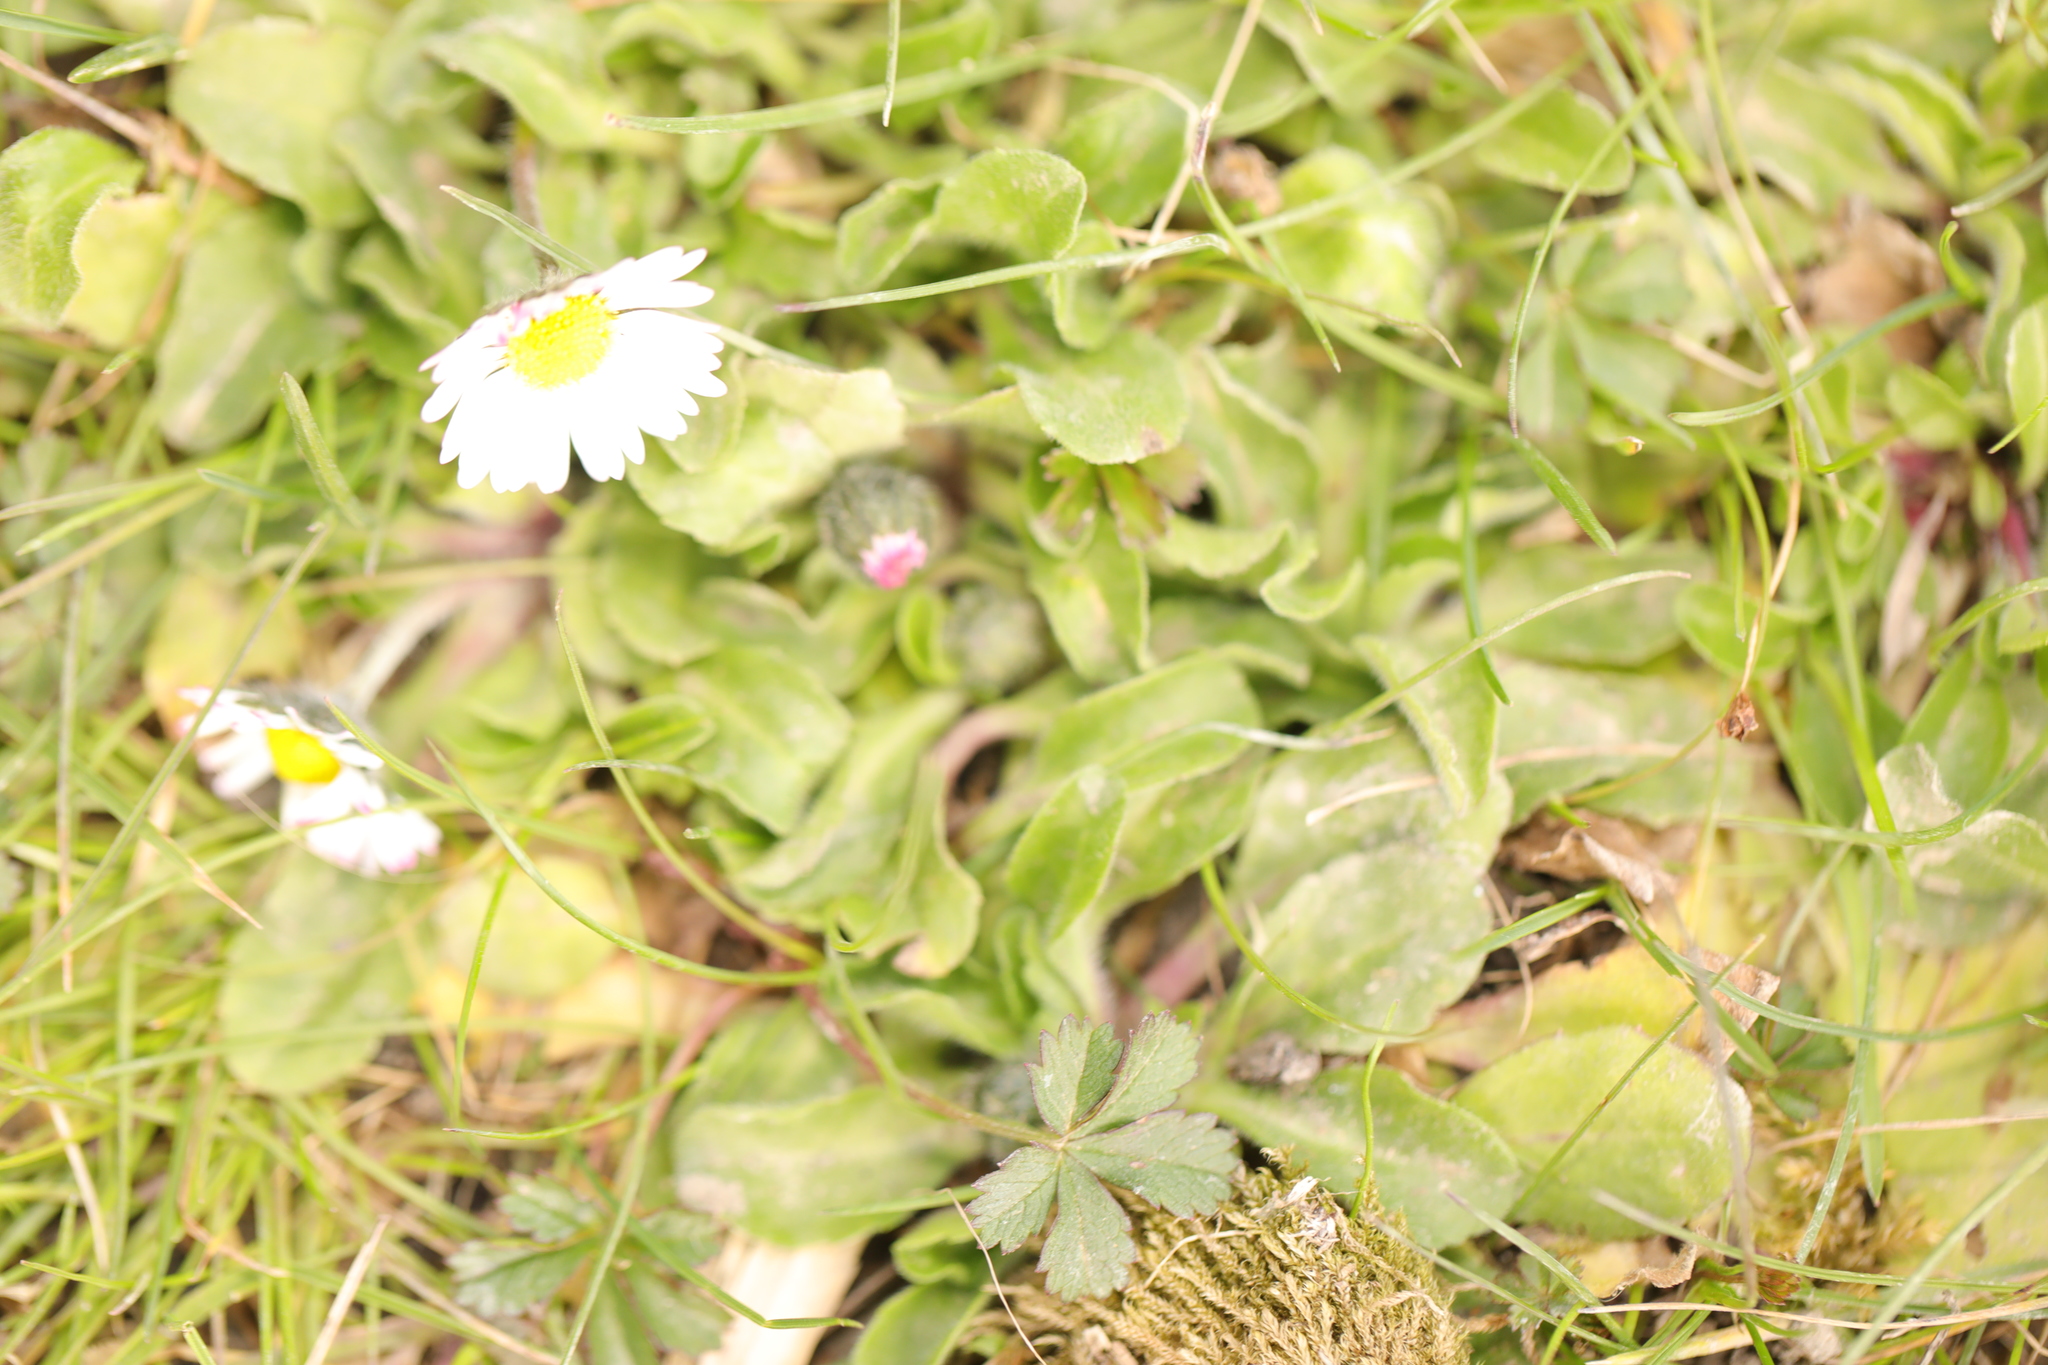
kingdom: Plantae
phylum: Tracheophyta
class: Magnoliopsida
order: Asterales
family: Asteraceae
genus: Bellis
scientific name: Bellis perennis
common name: Lawndaisy
